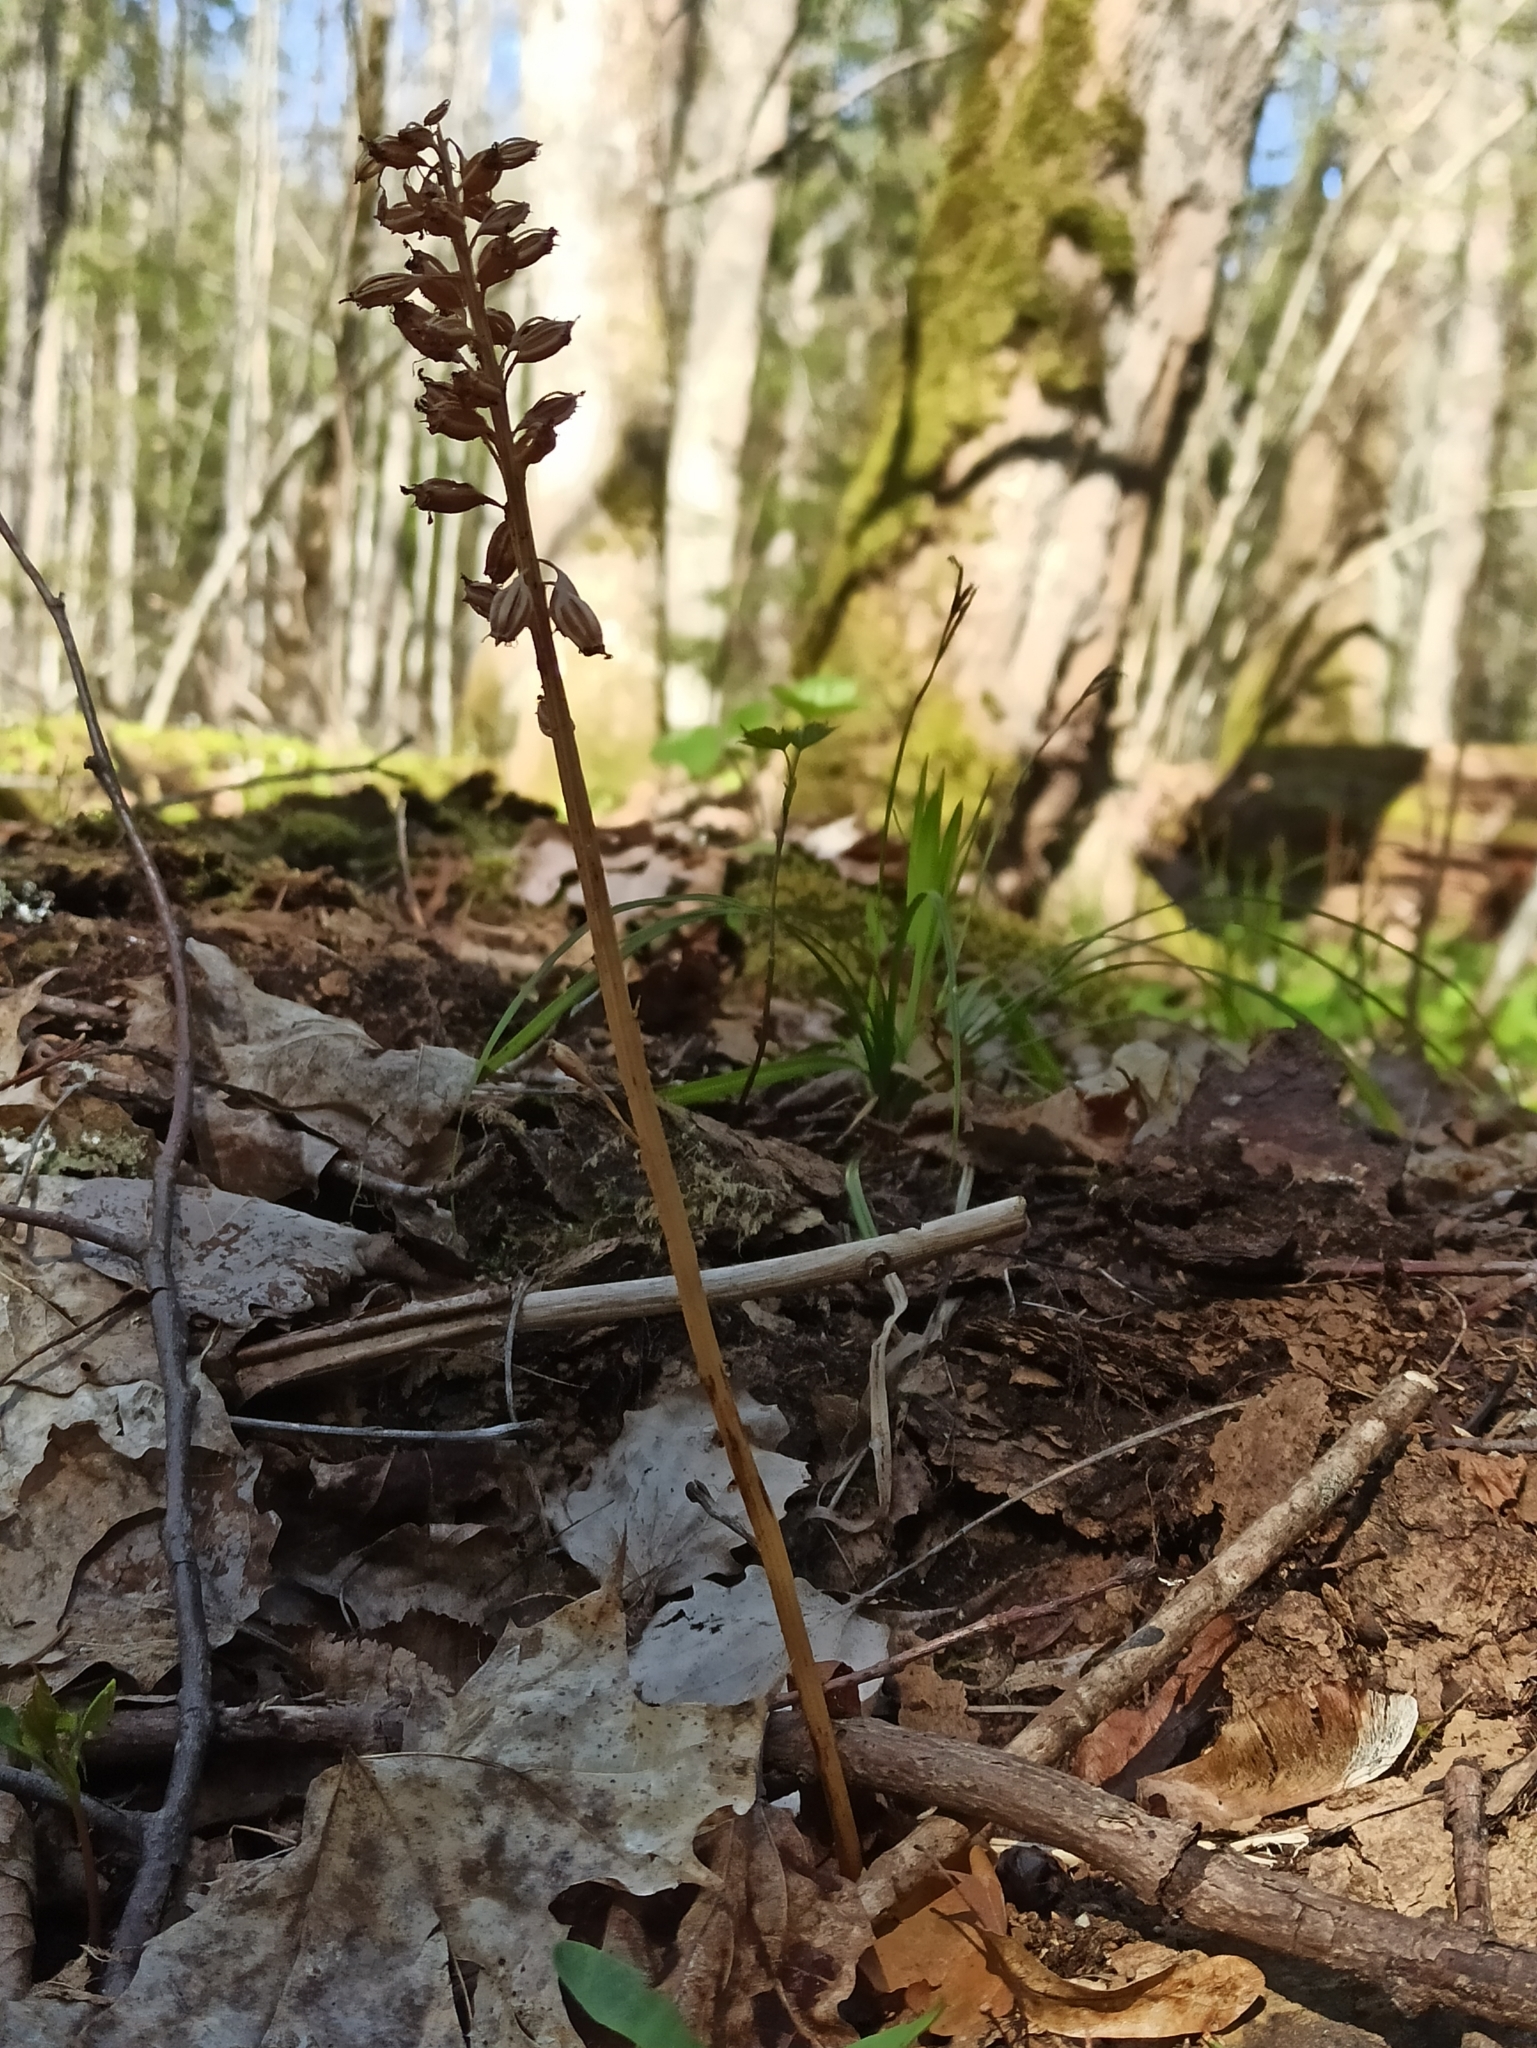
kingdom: Plantae
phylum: Tracheophyta
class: Liliopsida
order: Asparagales
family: Orchidaceae
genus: Neottia
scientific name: Neottia nidus-avis
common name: Bird's-nest orchid
